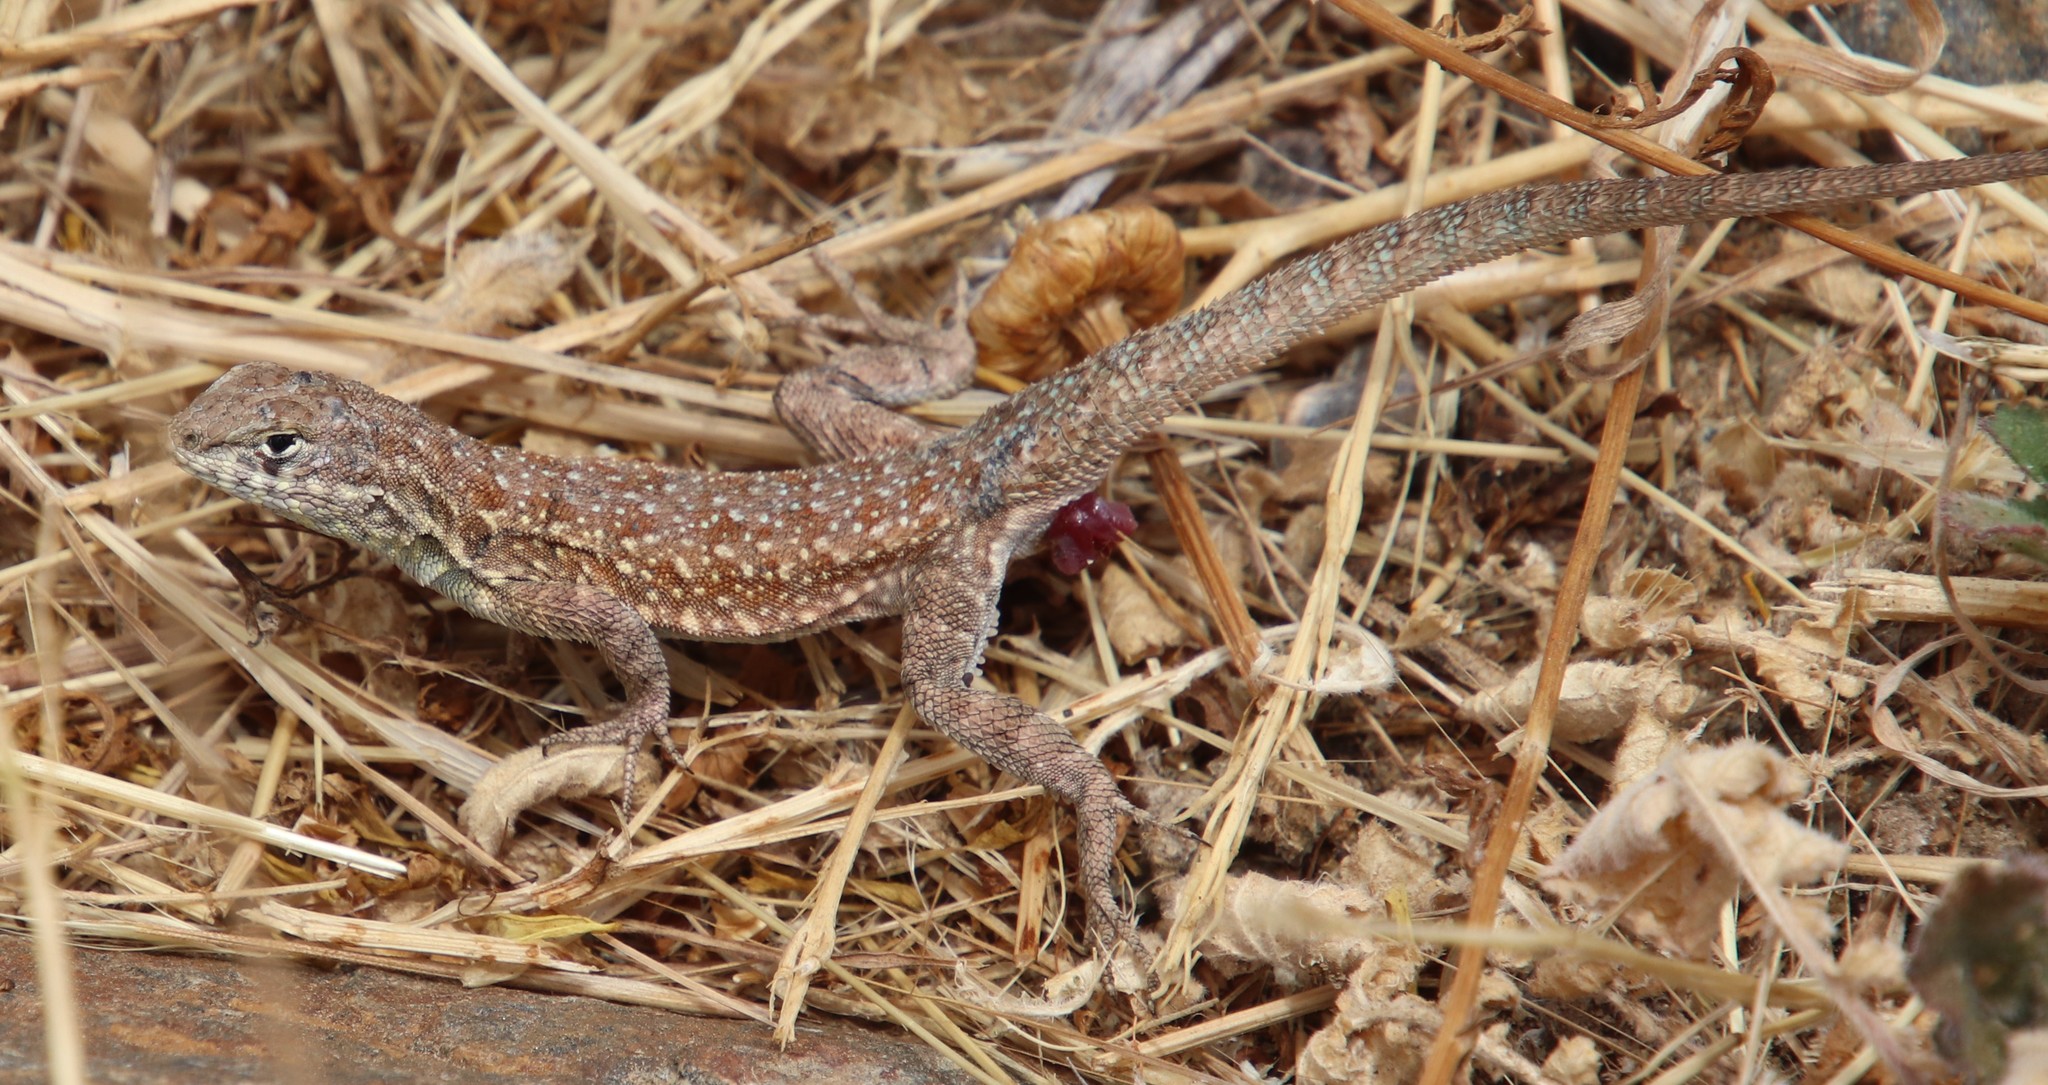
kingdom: Animalia
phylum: Chordata
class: Squamata
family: Phrynosomatidae
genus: Uta
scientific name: Uta stansburiana
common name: Side-blotched lizard
